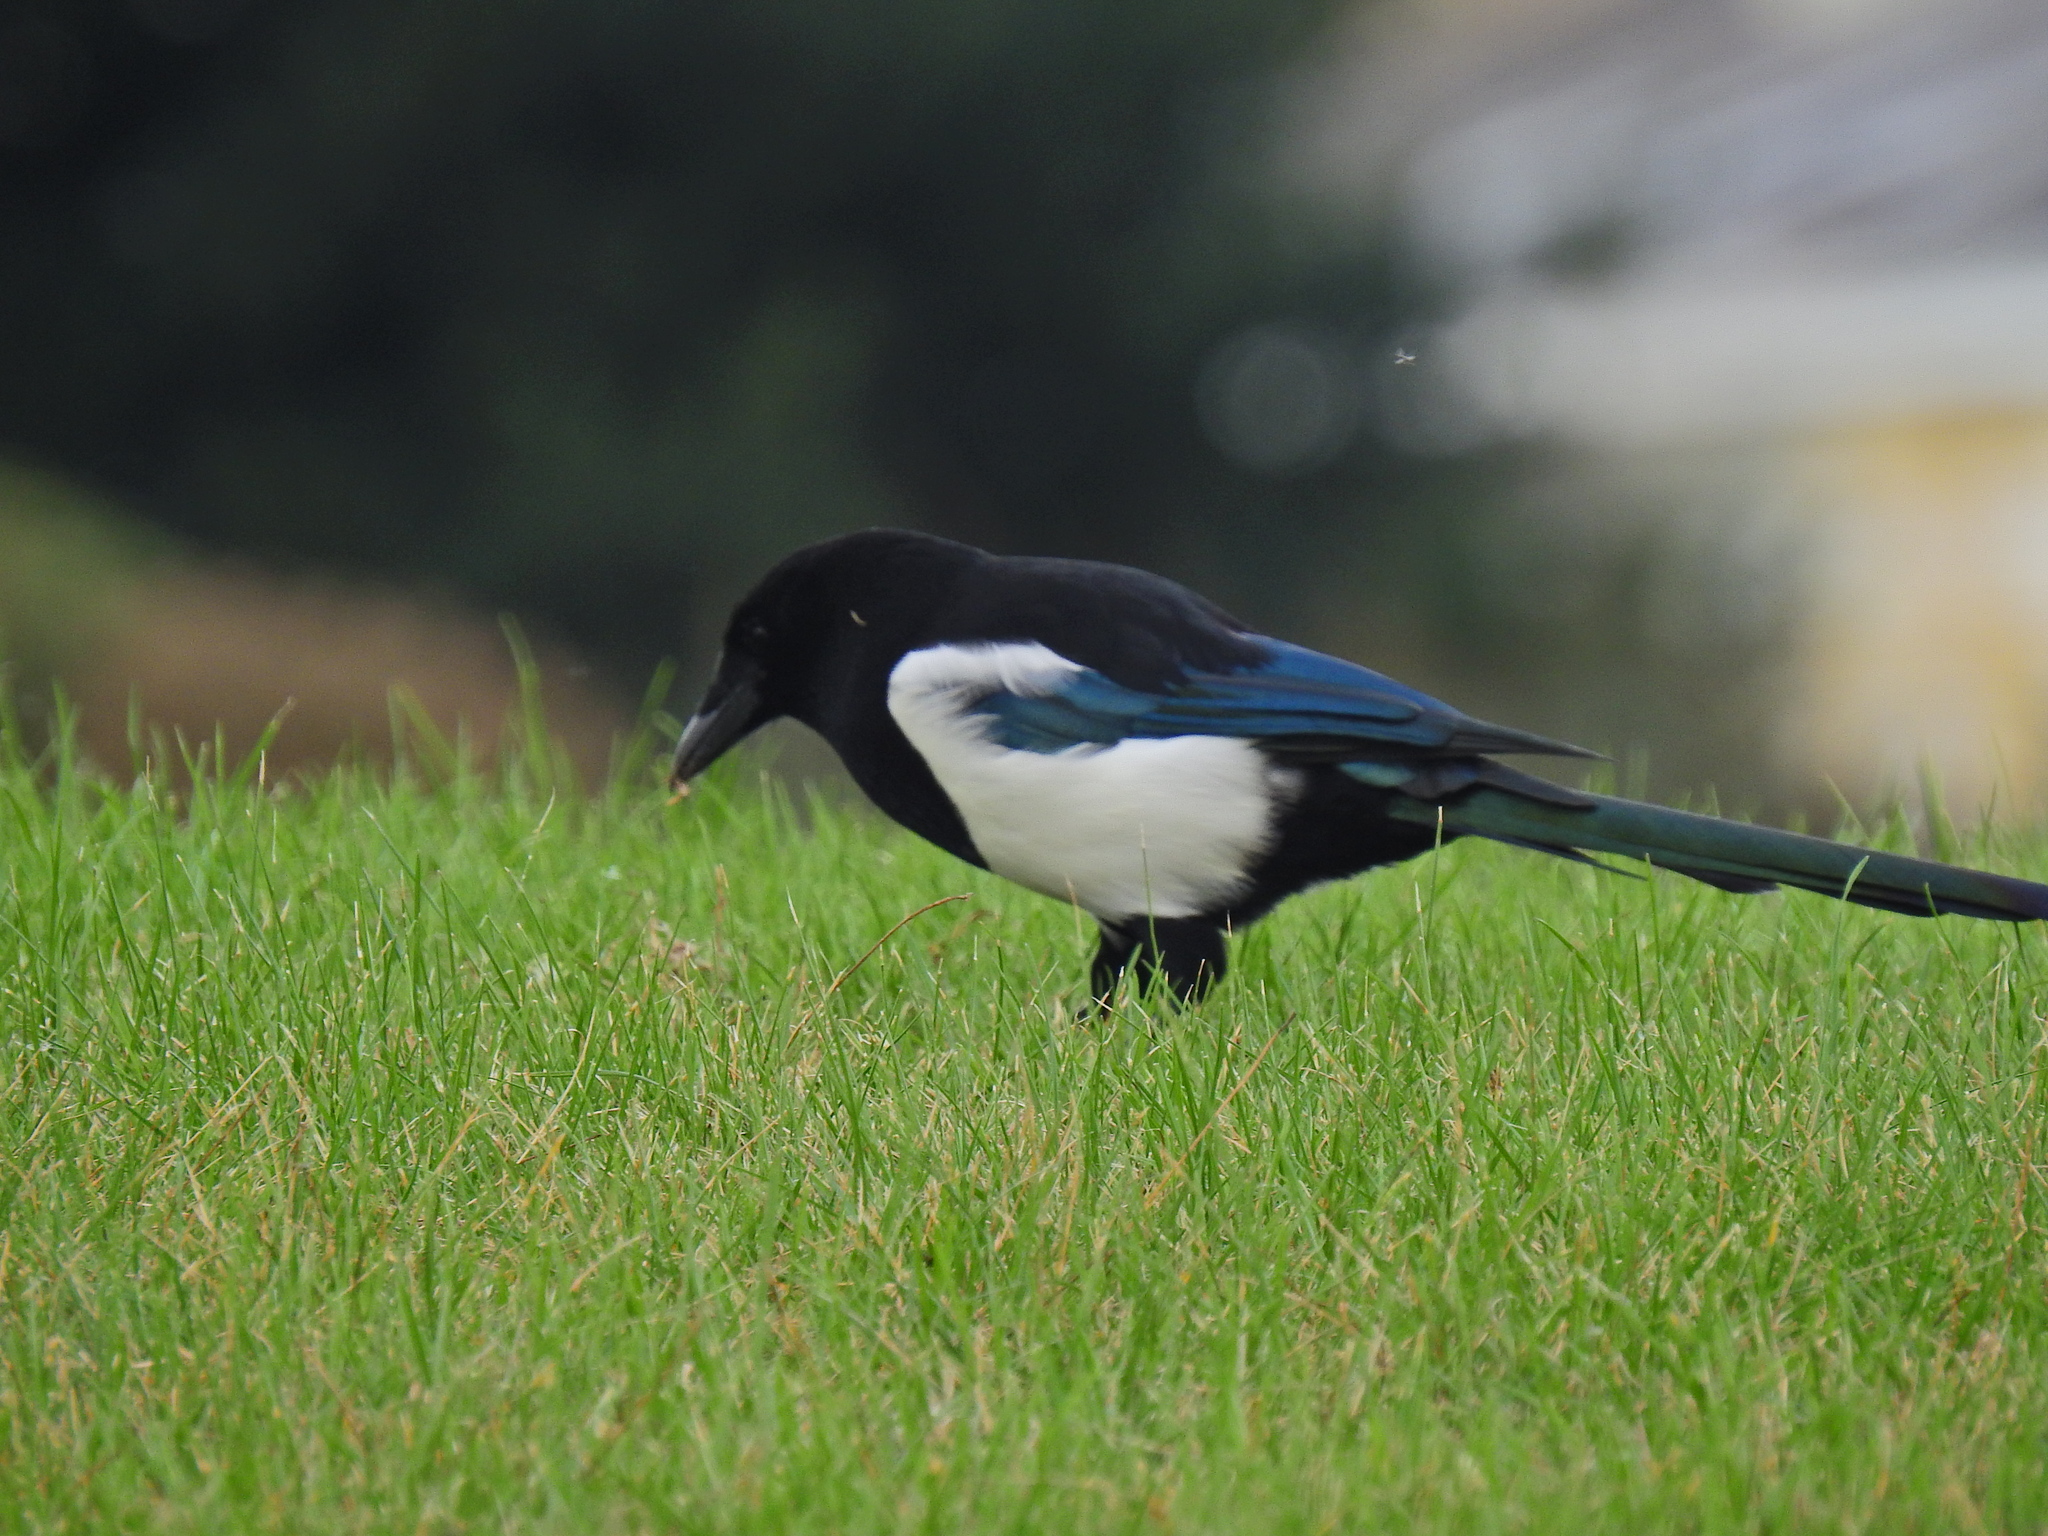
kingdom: Animalia
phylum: Chordata
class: Aves
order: Passeriformes
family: Corvidae
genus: Pica
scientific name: Pica pica
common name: Eurasian magpie
